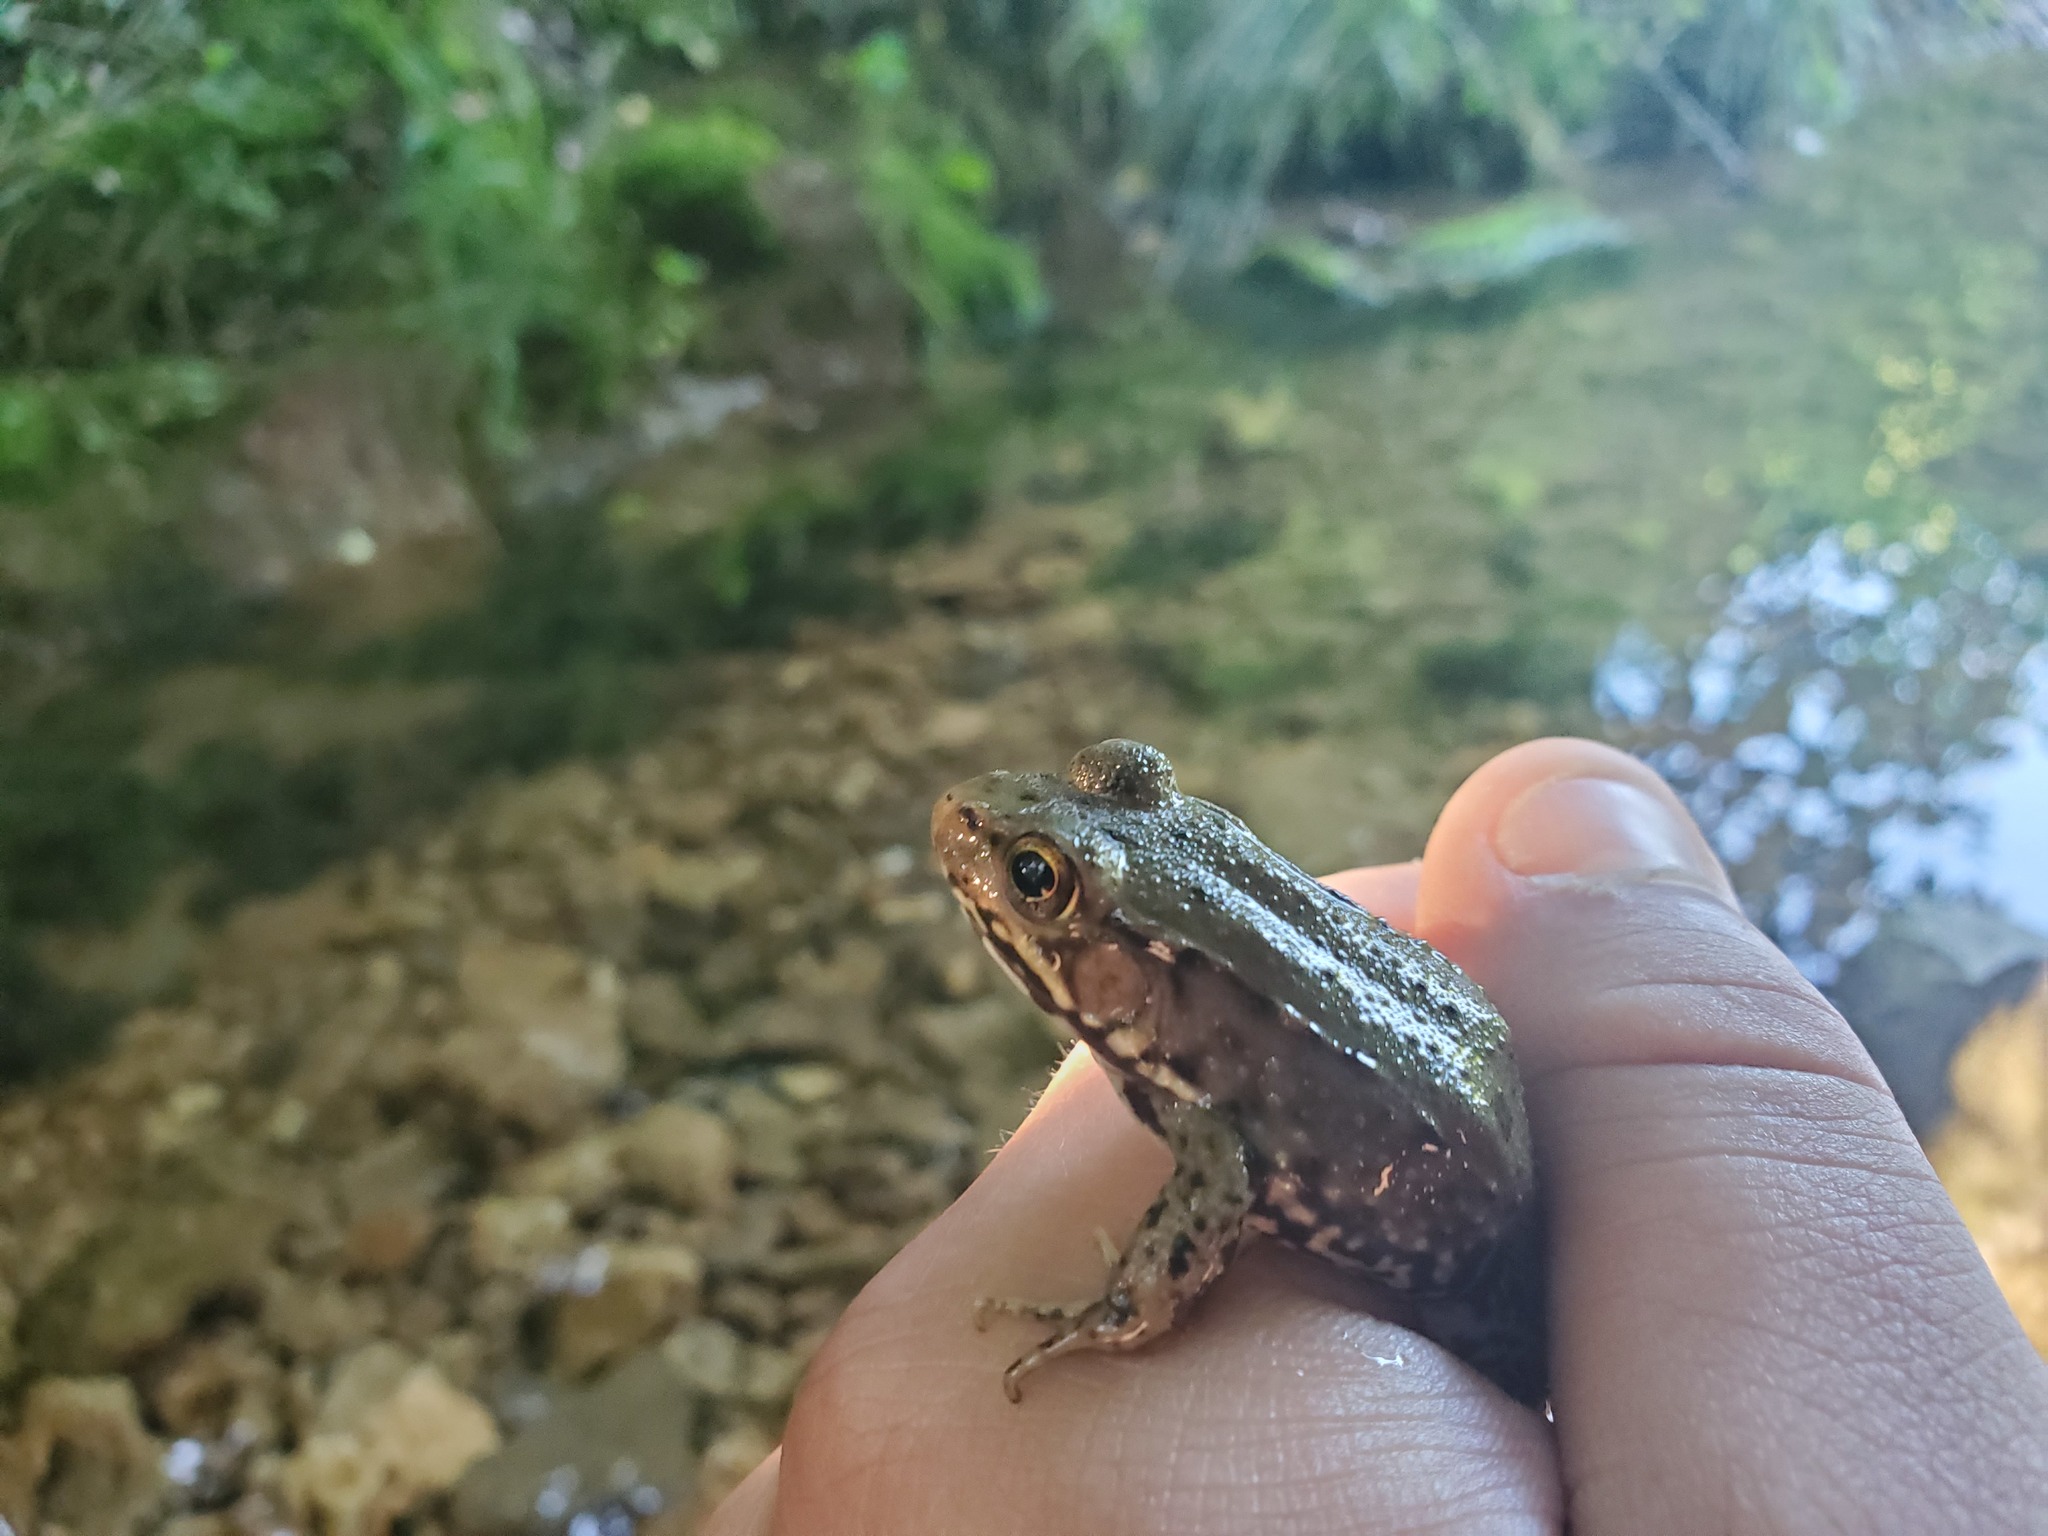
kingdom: Animalia
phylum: Chordata
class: Amphibia
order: Anura
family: Ranidae
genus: Lithobates
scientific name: Lithobates clamitans
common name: Green frog
